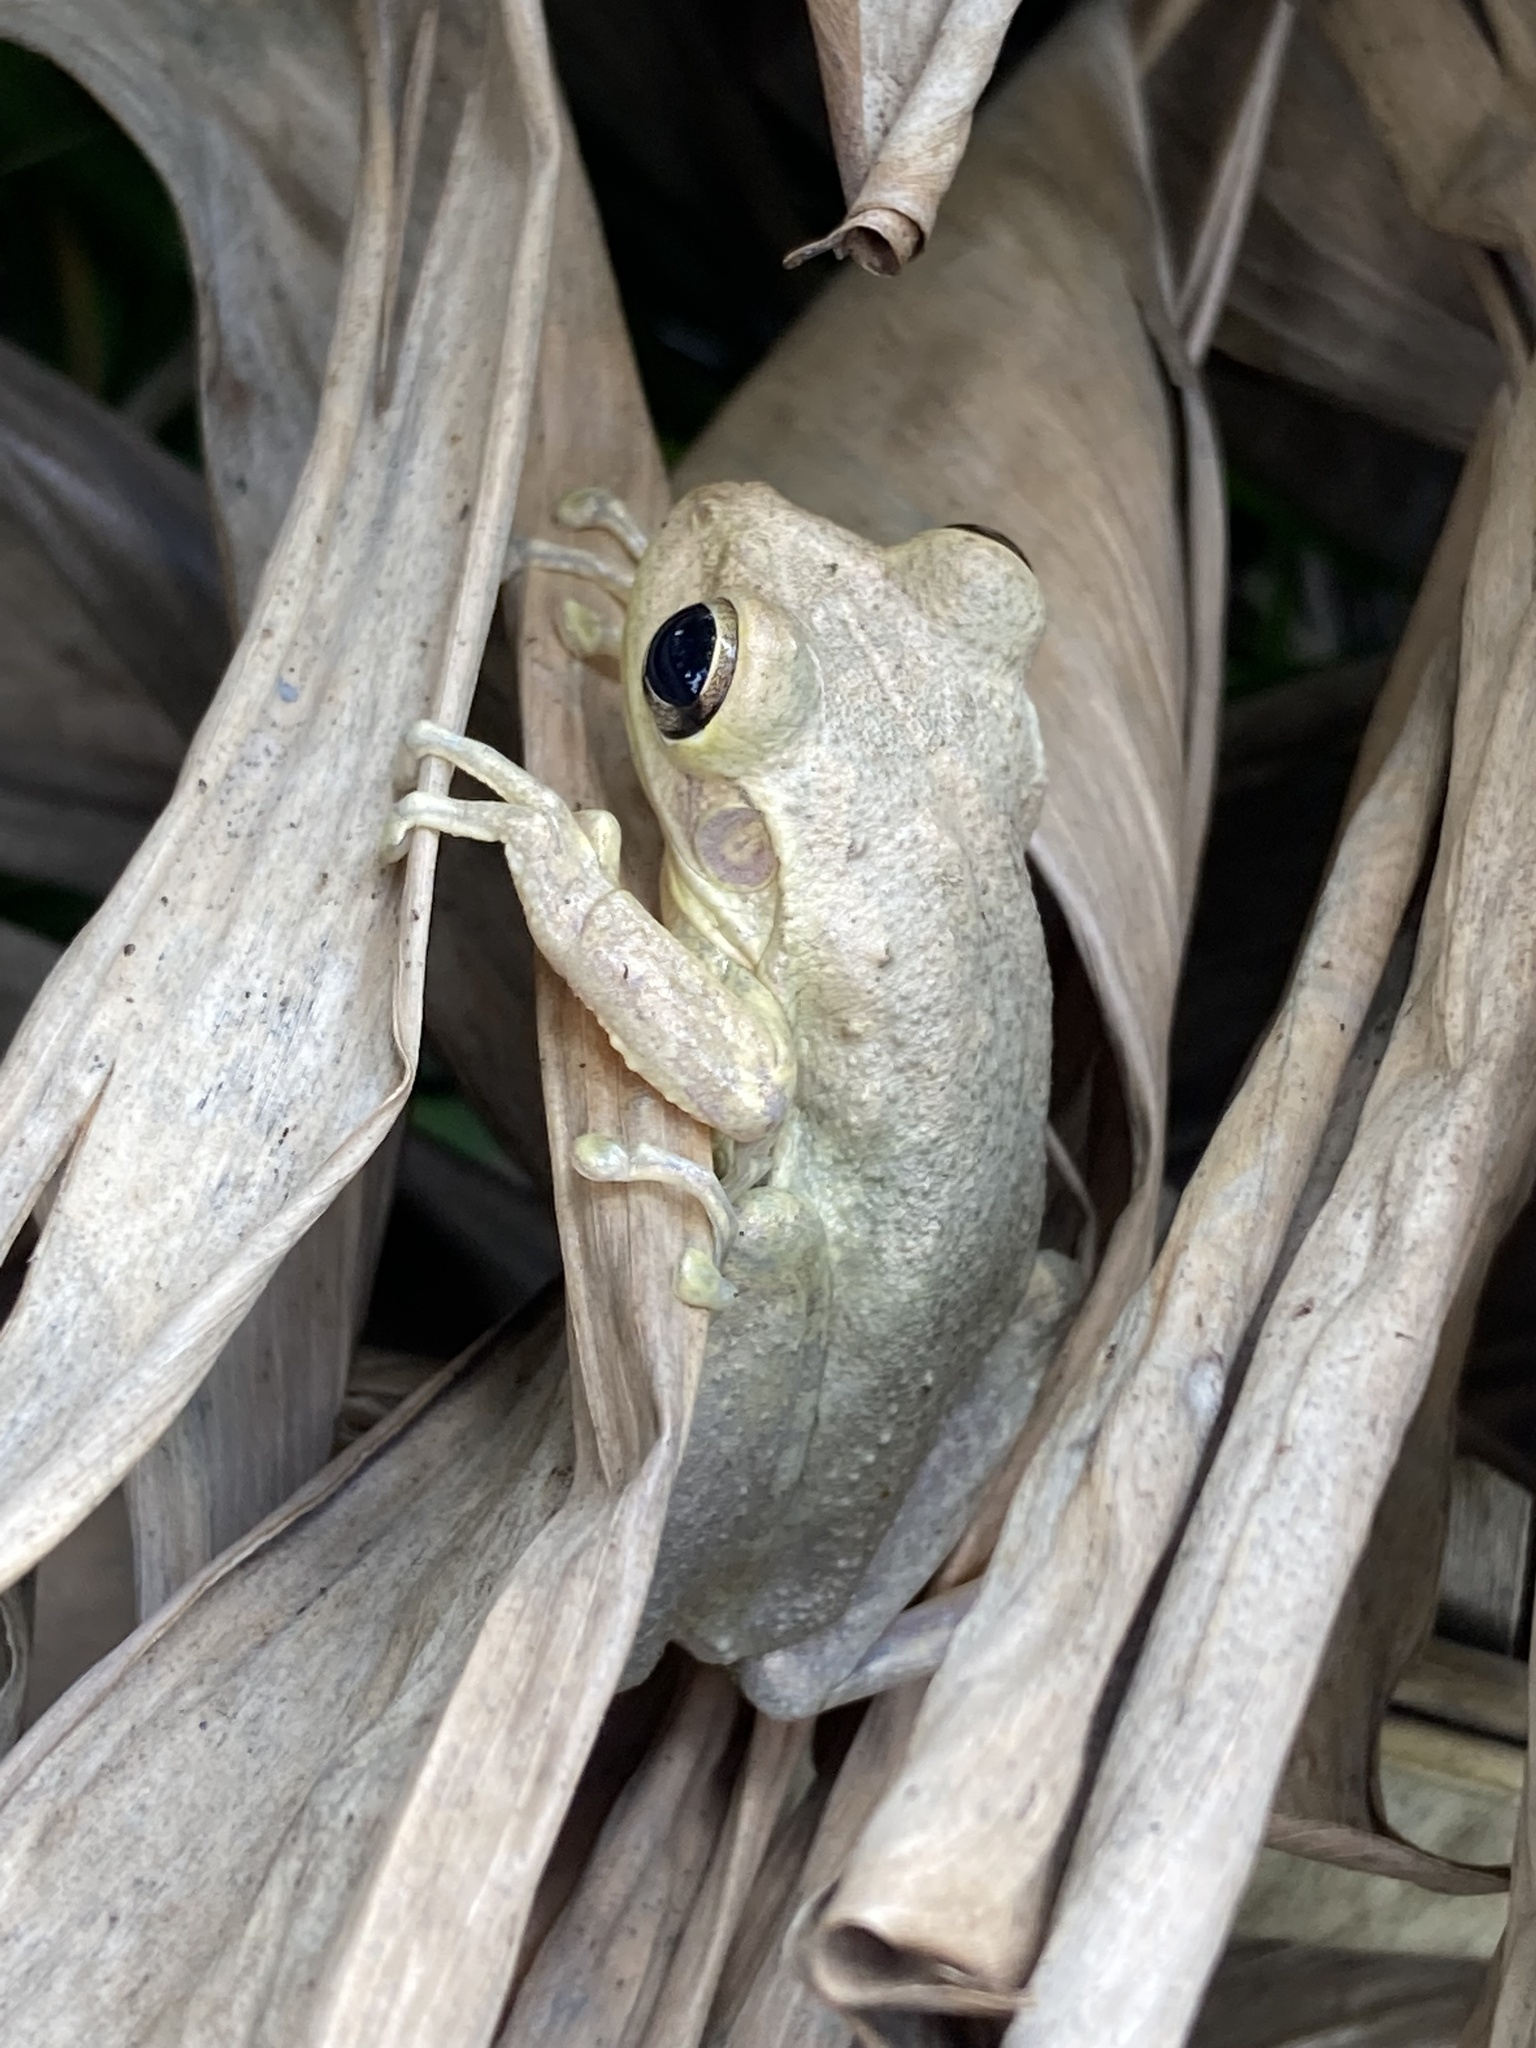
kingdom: Animalia
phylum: Chordata
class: Amphibia
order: Anura
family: Hylidae
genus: Osteopilus
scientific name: Osteopilus septentrionalis
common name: Cuban treefrog
